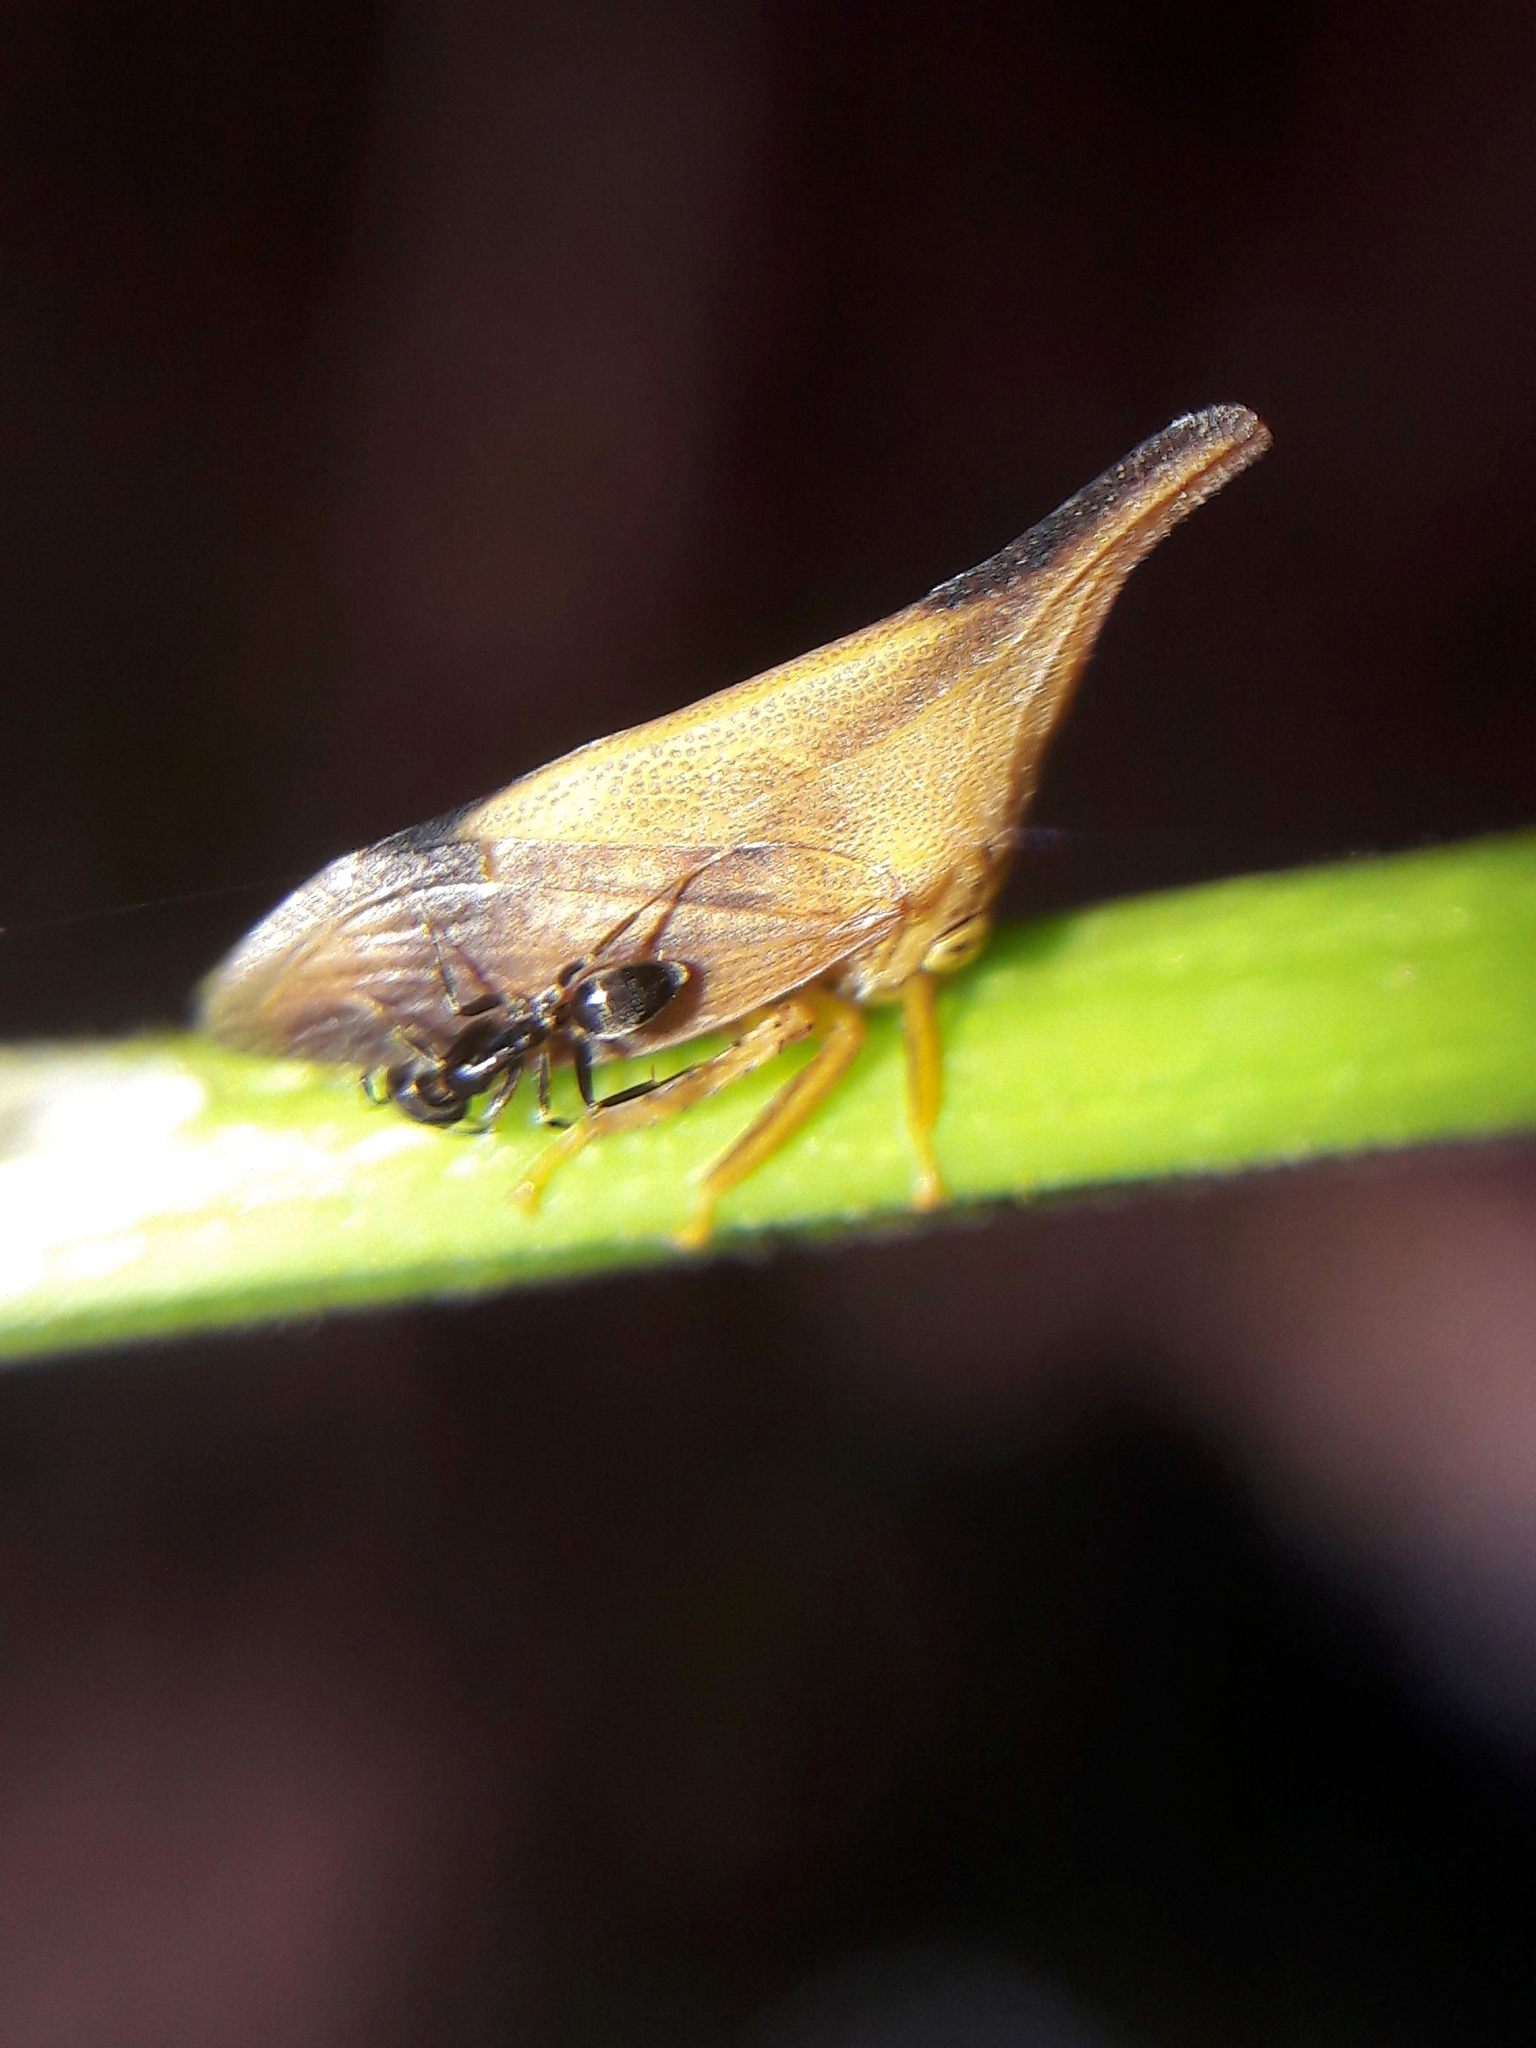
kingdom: Animalia
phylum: Arthropoda
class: Insecta
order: Hemiptera
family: Membracidae
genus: Enchenopa
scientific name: Enchenopa concolor
